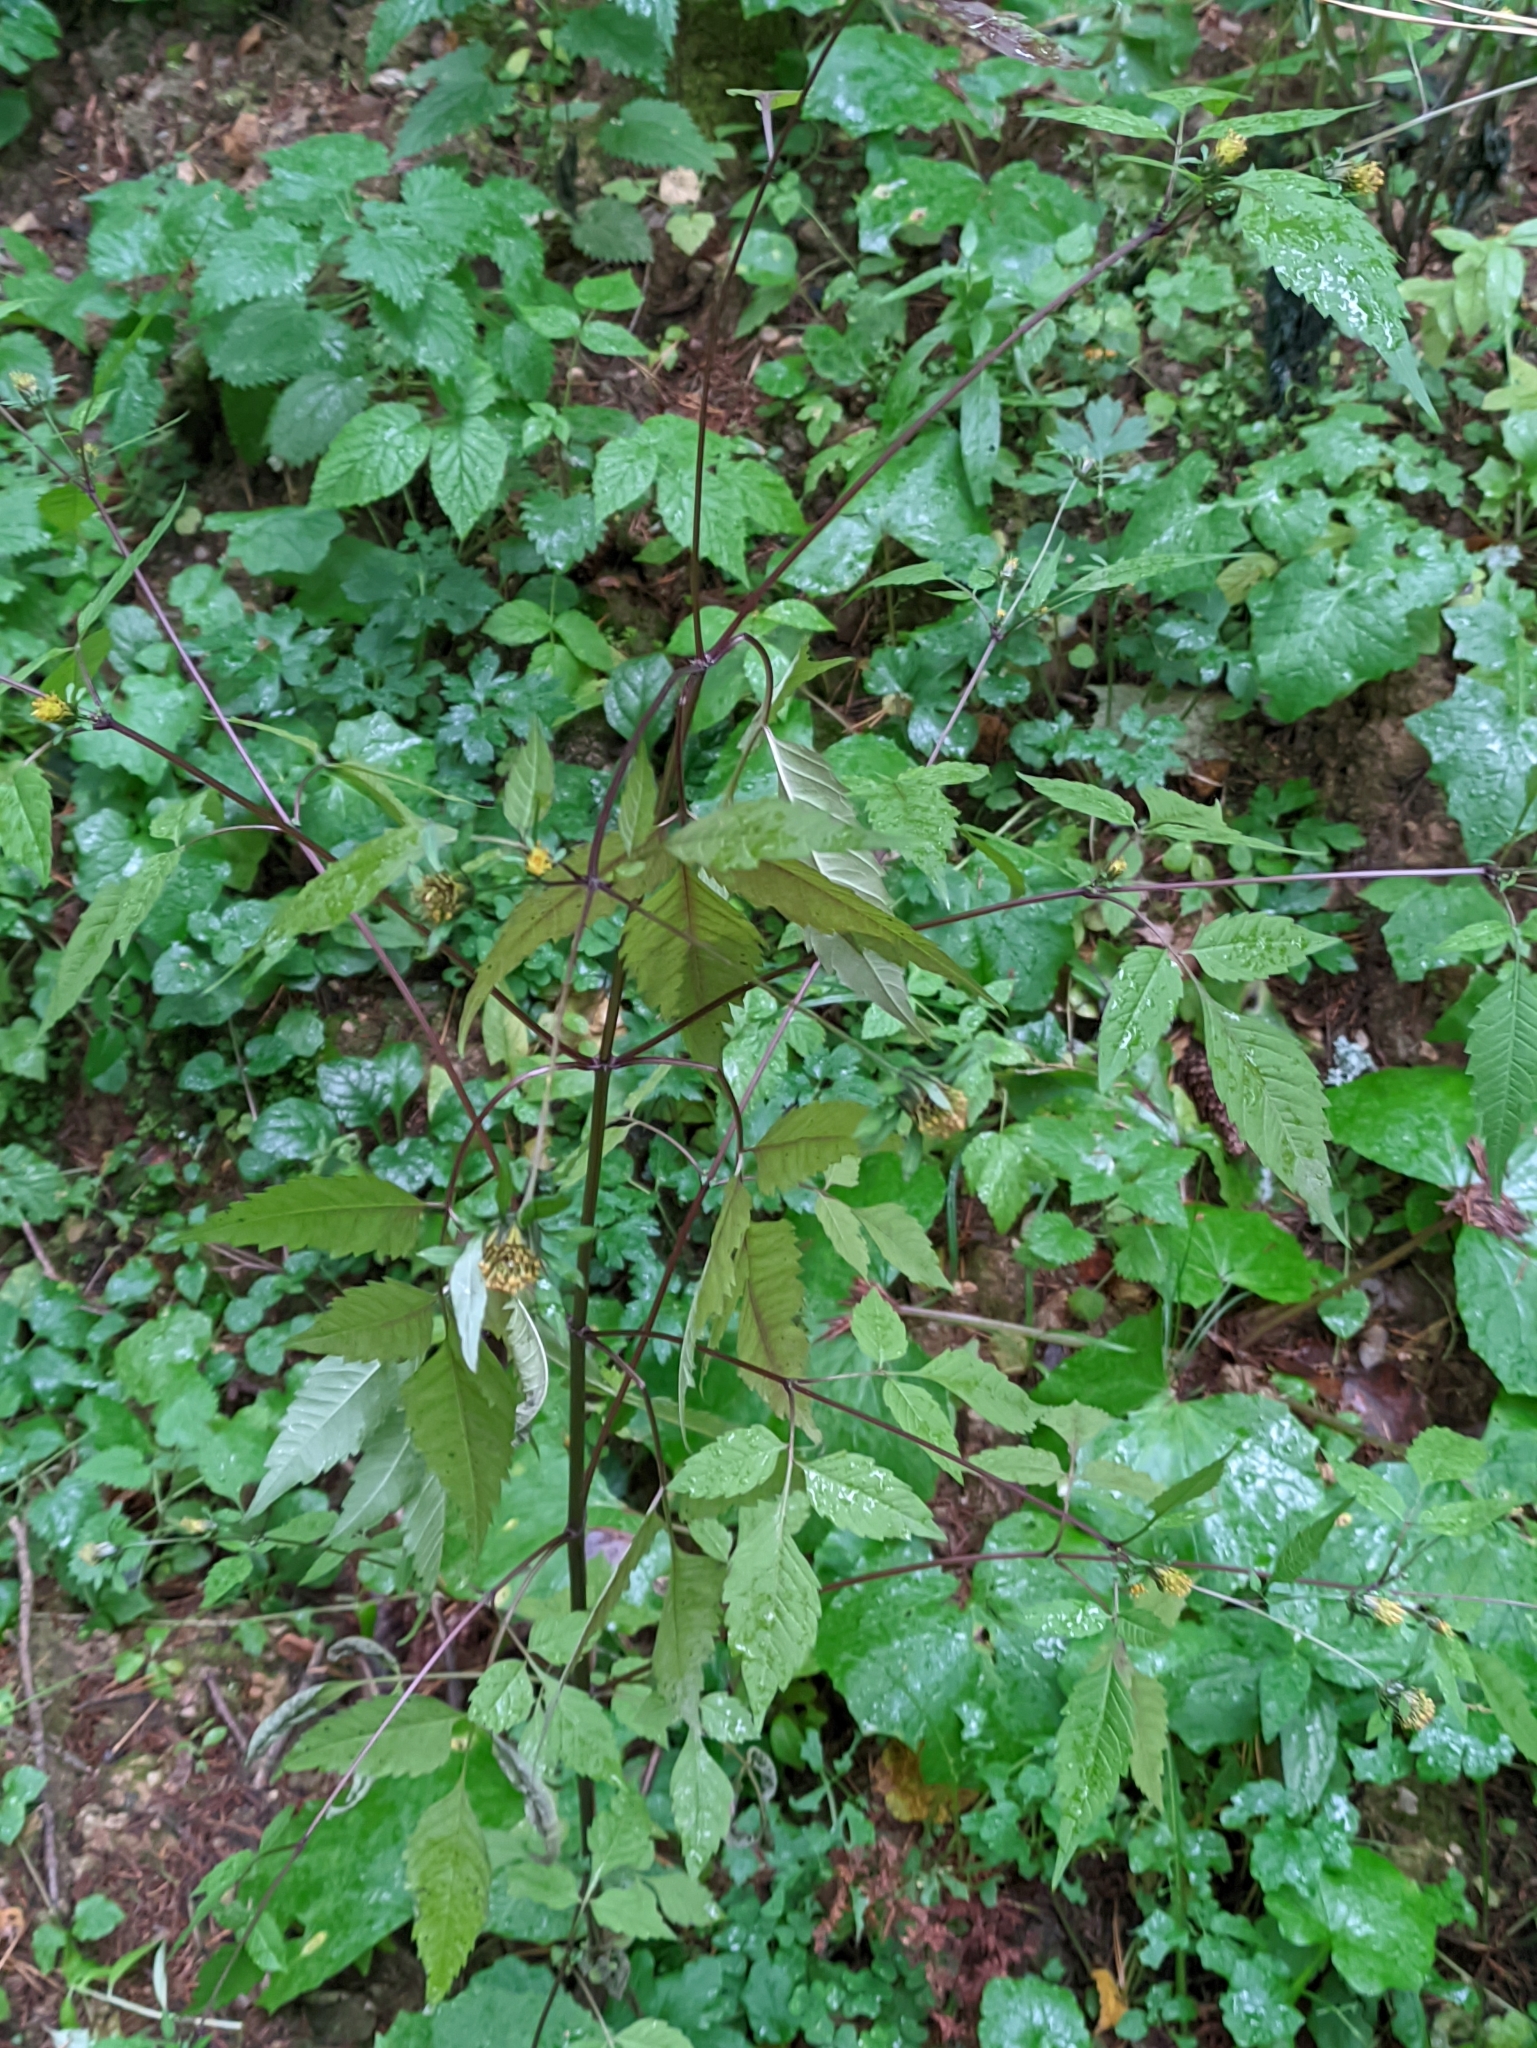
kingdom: Plantae
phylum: Tracheophyta
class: Magnoliopsida
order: Asterales
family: Asteraceae
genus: Bidens
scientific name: Bidens frondosa
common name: Beggarticks
